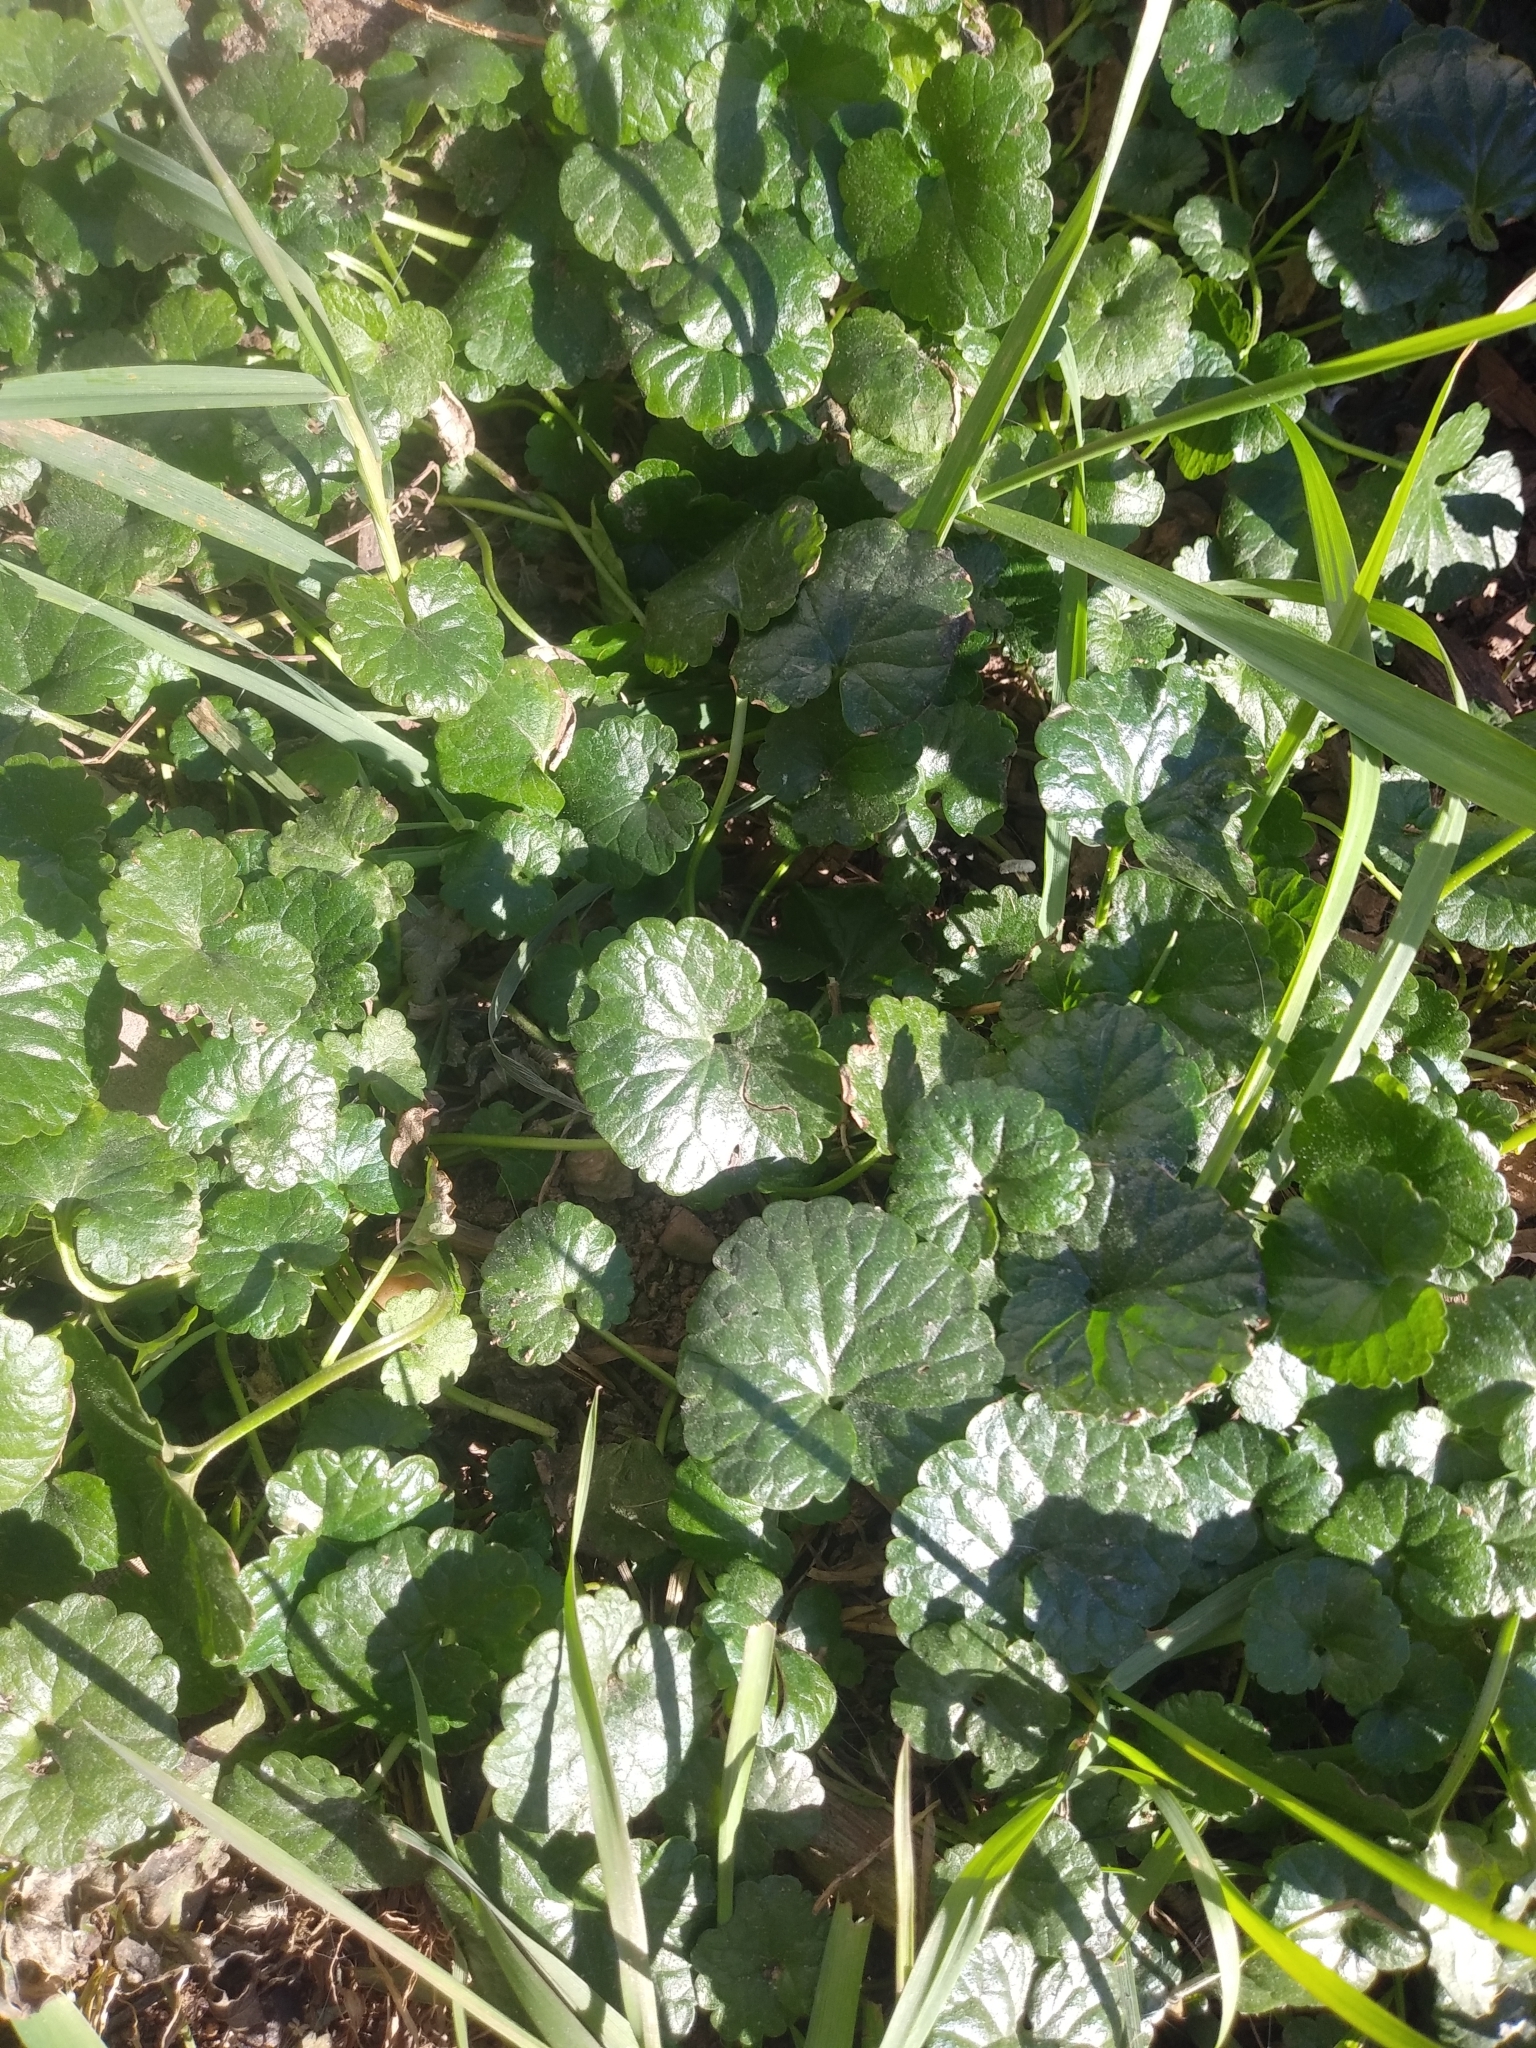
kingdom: Plantae
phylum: Tracheophyta
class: Magnoliopsida
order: Lamiales
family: Lamiaceae
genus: Glechoma
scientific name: Glechoma hederacea
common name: Ground ivy
